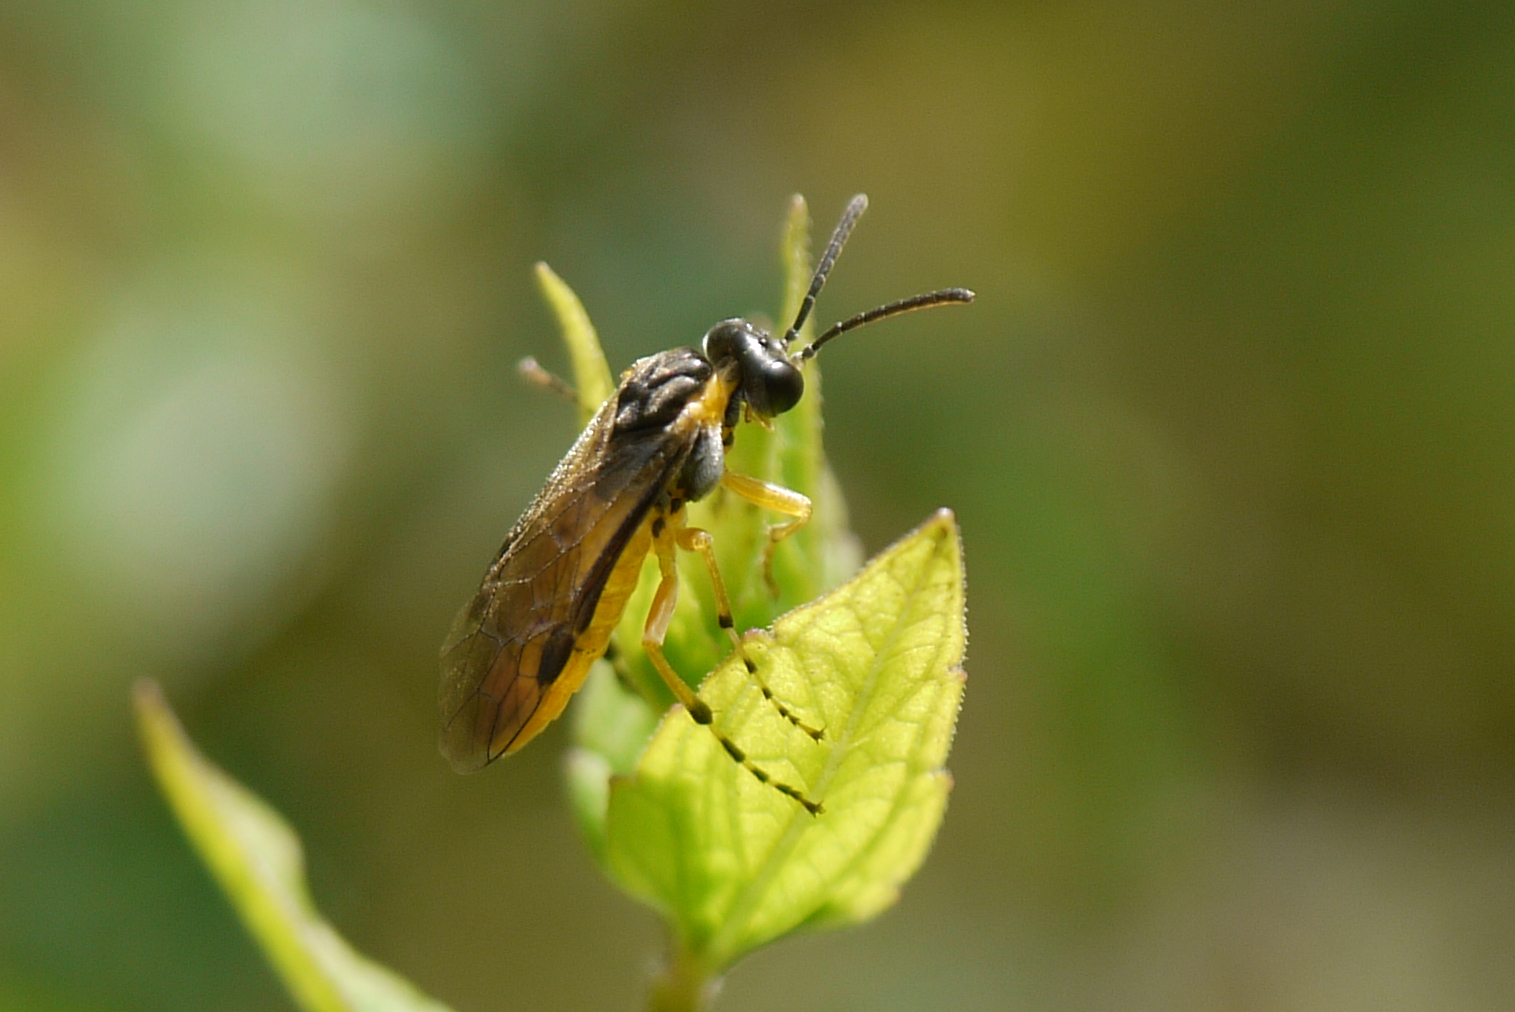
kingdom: Animalia
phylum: Arthropoda
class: Insecta
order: Hymenoptera
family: Tenthredinidae
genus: Athalia
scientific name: Athalia cordata
